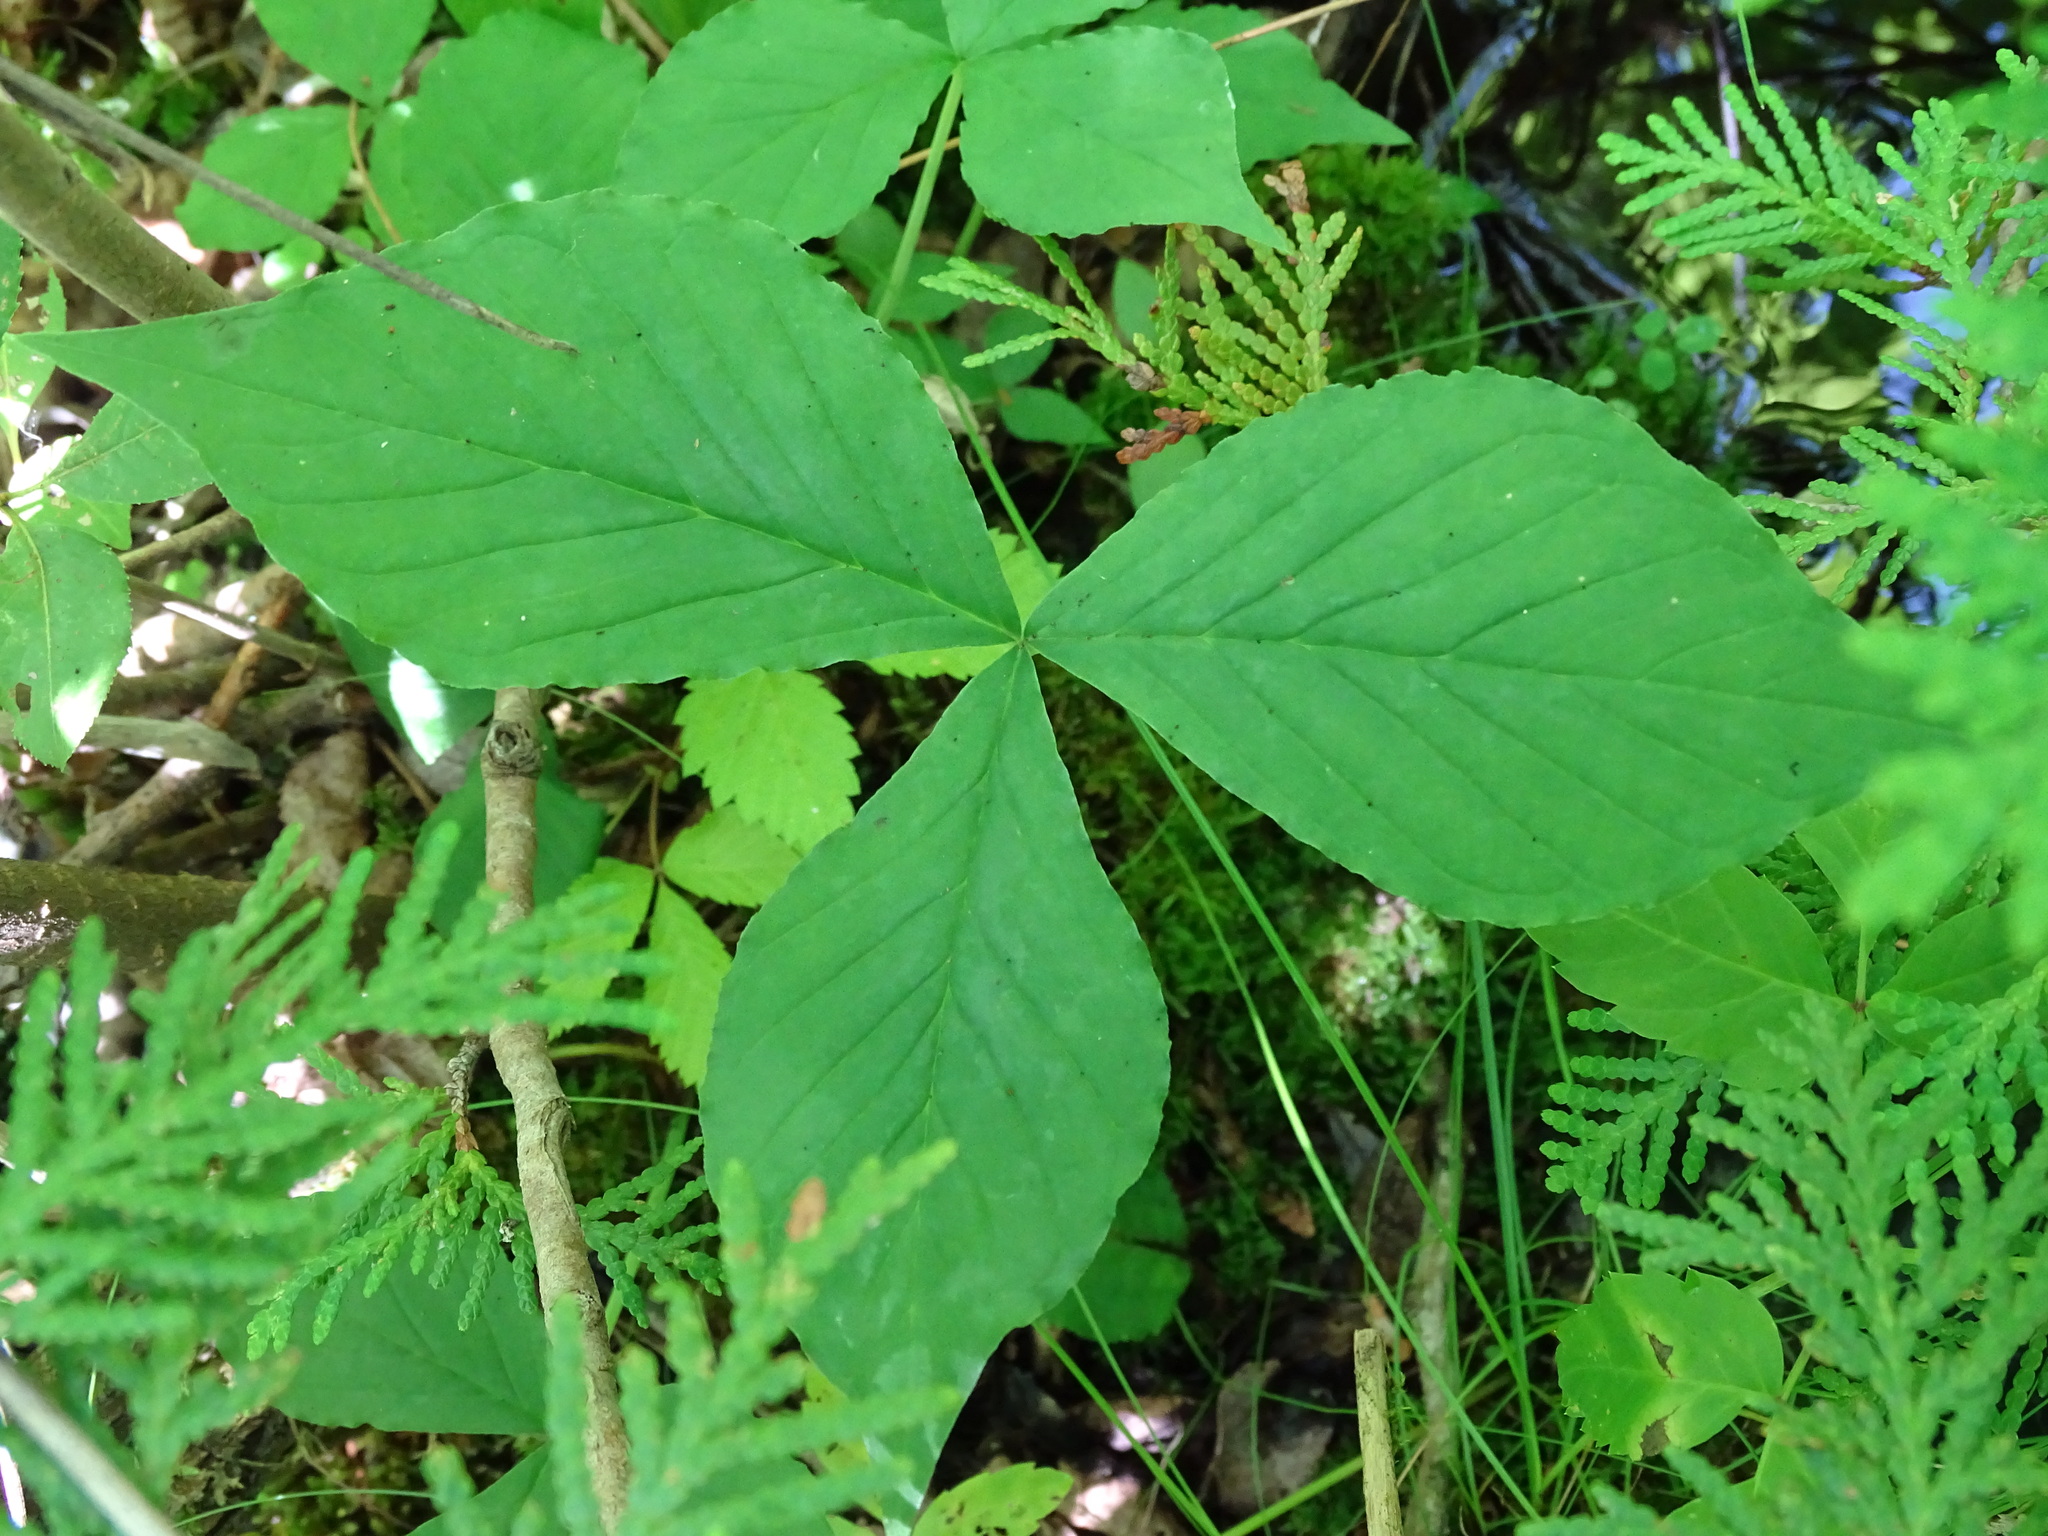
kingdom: Plantae
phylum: Tracheophyta
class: Liliopsida
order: Alismatales
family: Araceae
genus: Arisaema
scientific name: Arisaema triphyllum
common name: Jack-in-the-pulpit
